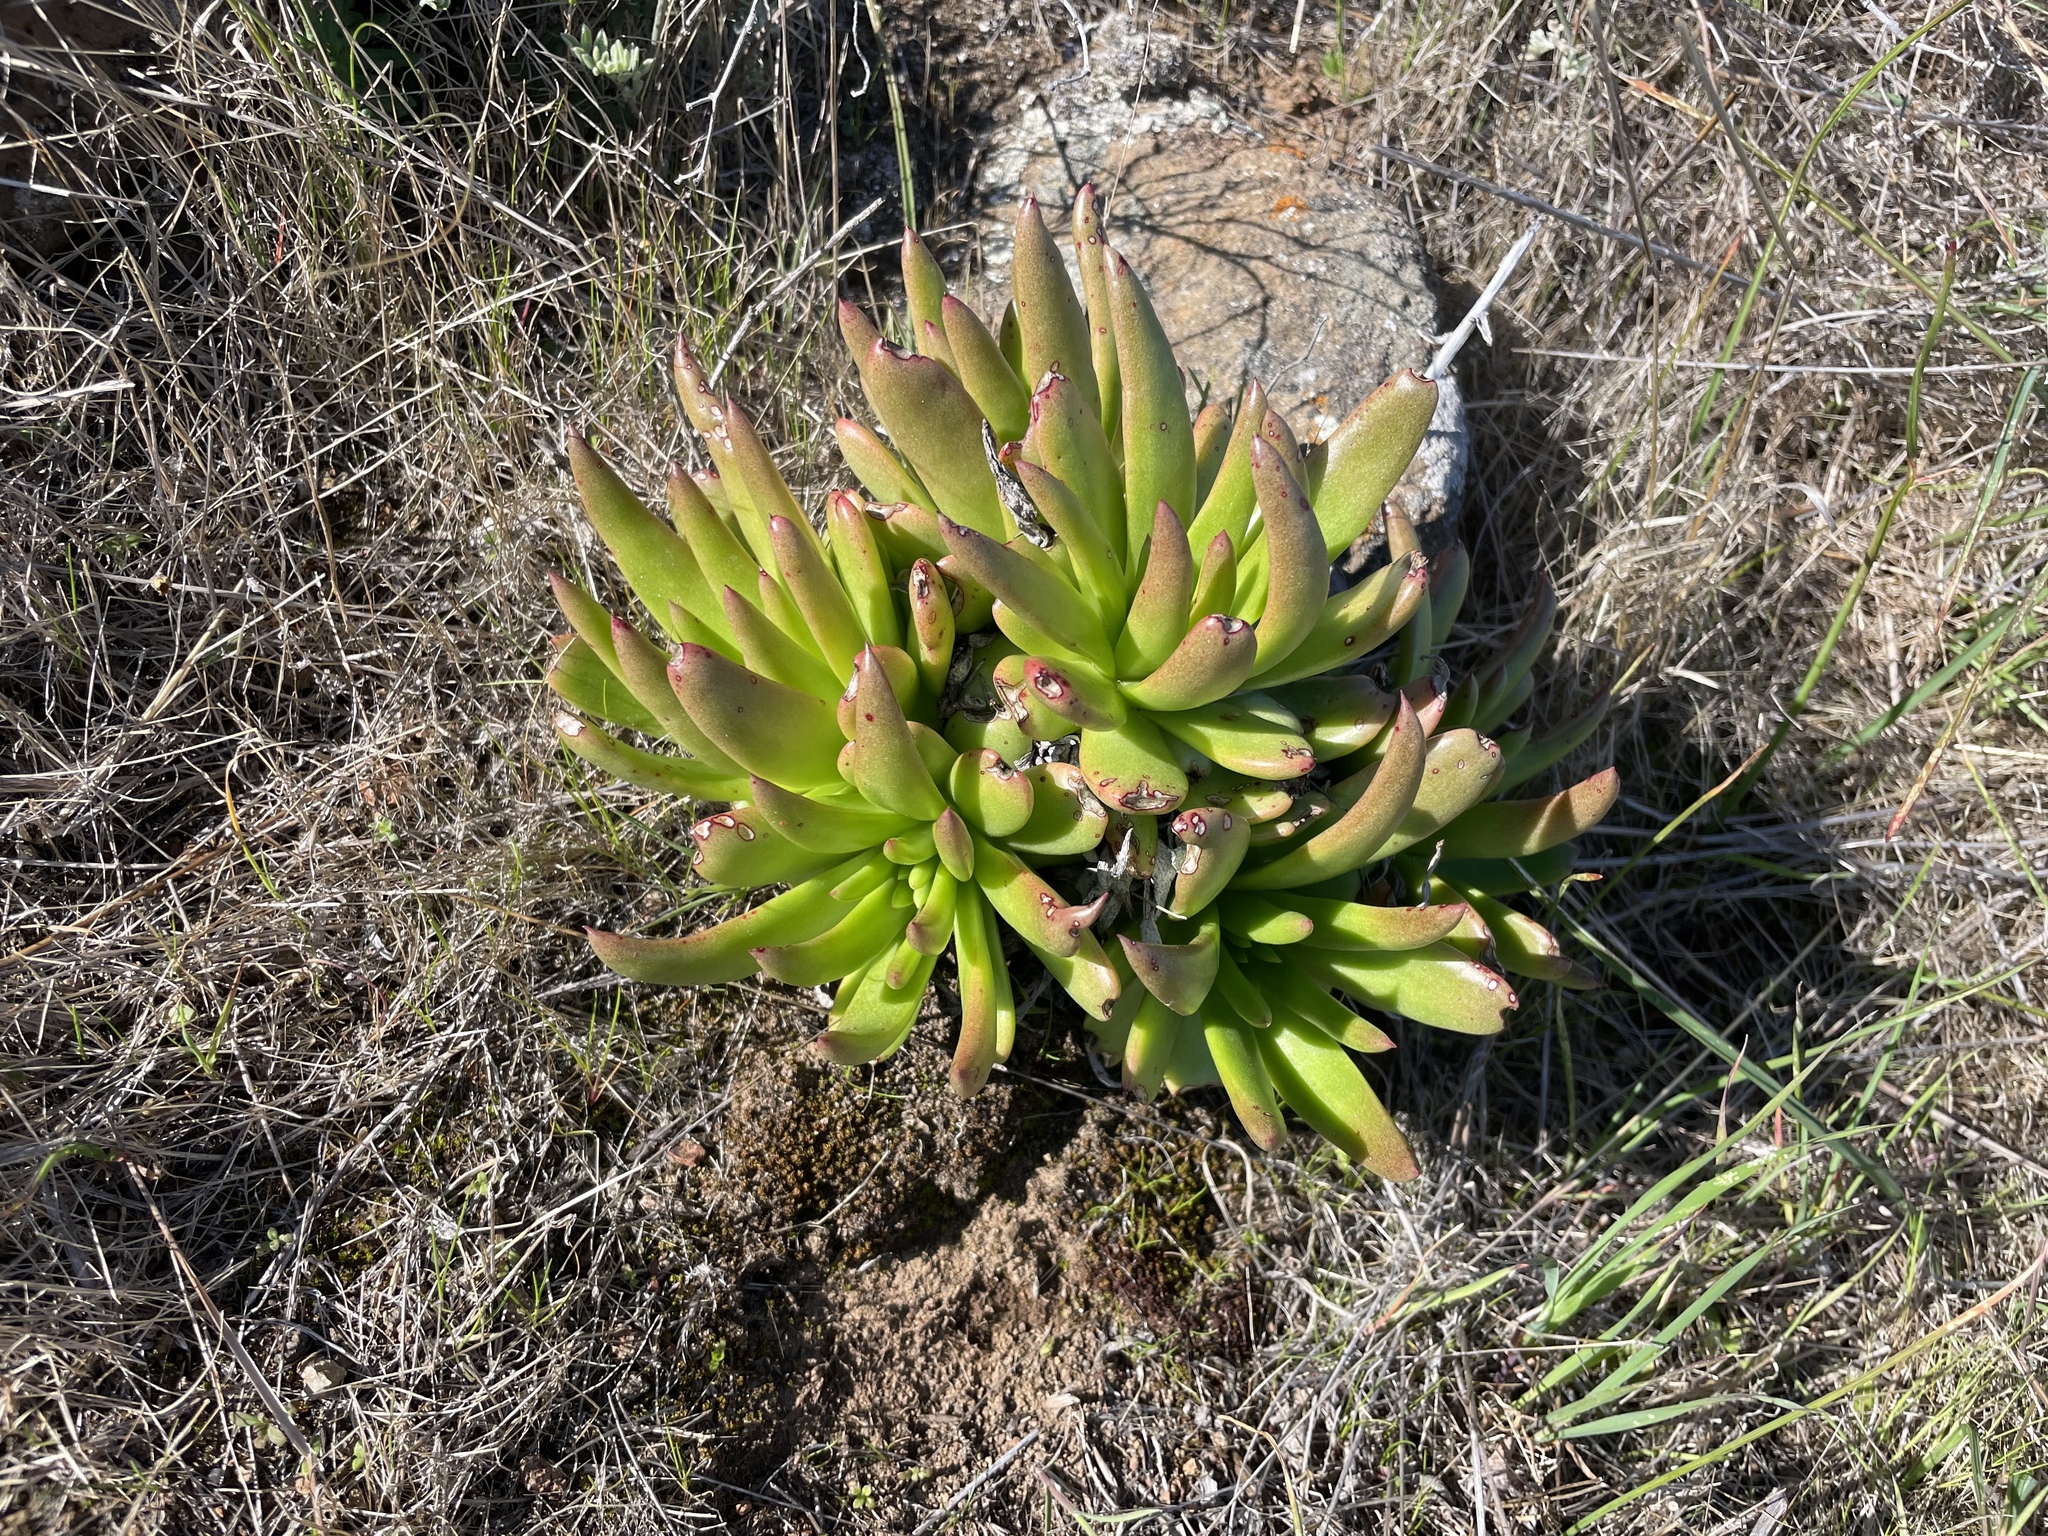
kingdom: Plantae
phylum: Tracheophyta
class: Magnoliopsida
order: Saxifragales
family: Crassulaceae
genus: Dudleya
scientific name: Dudleya virens
